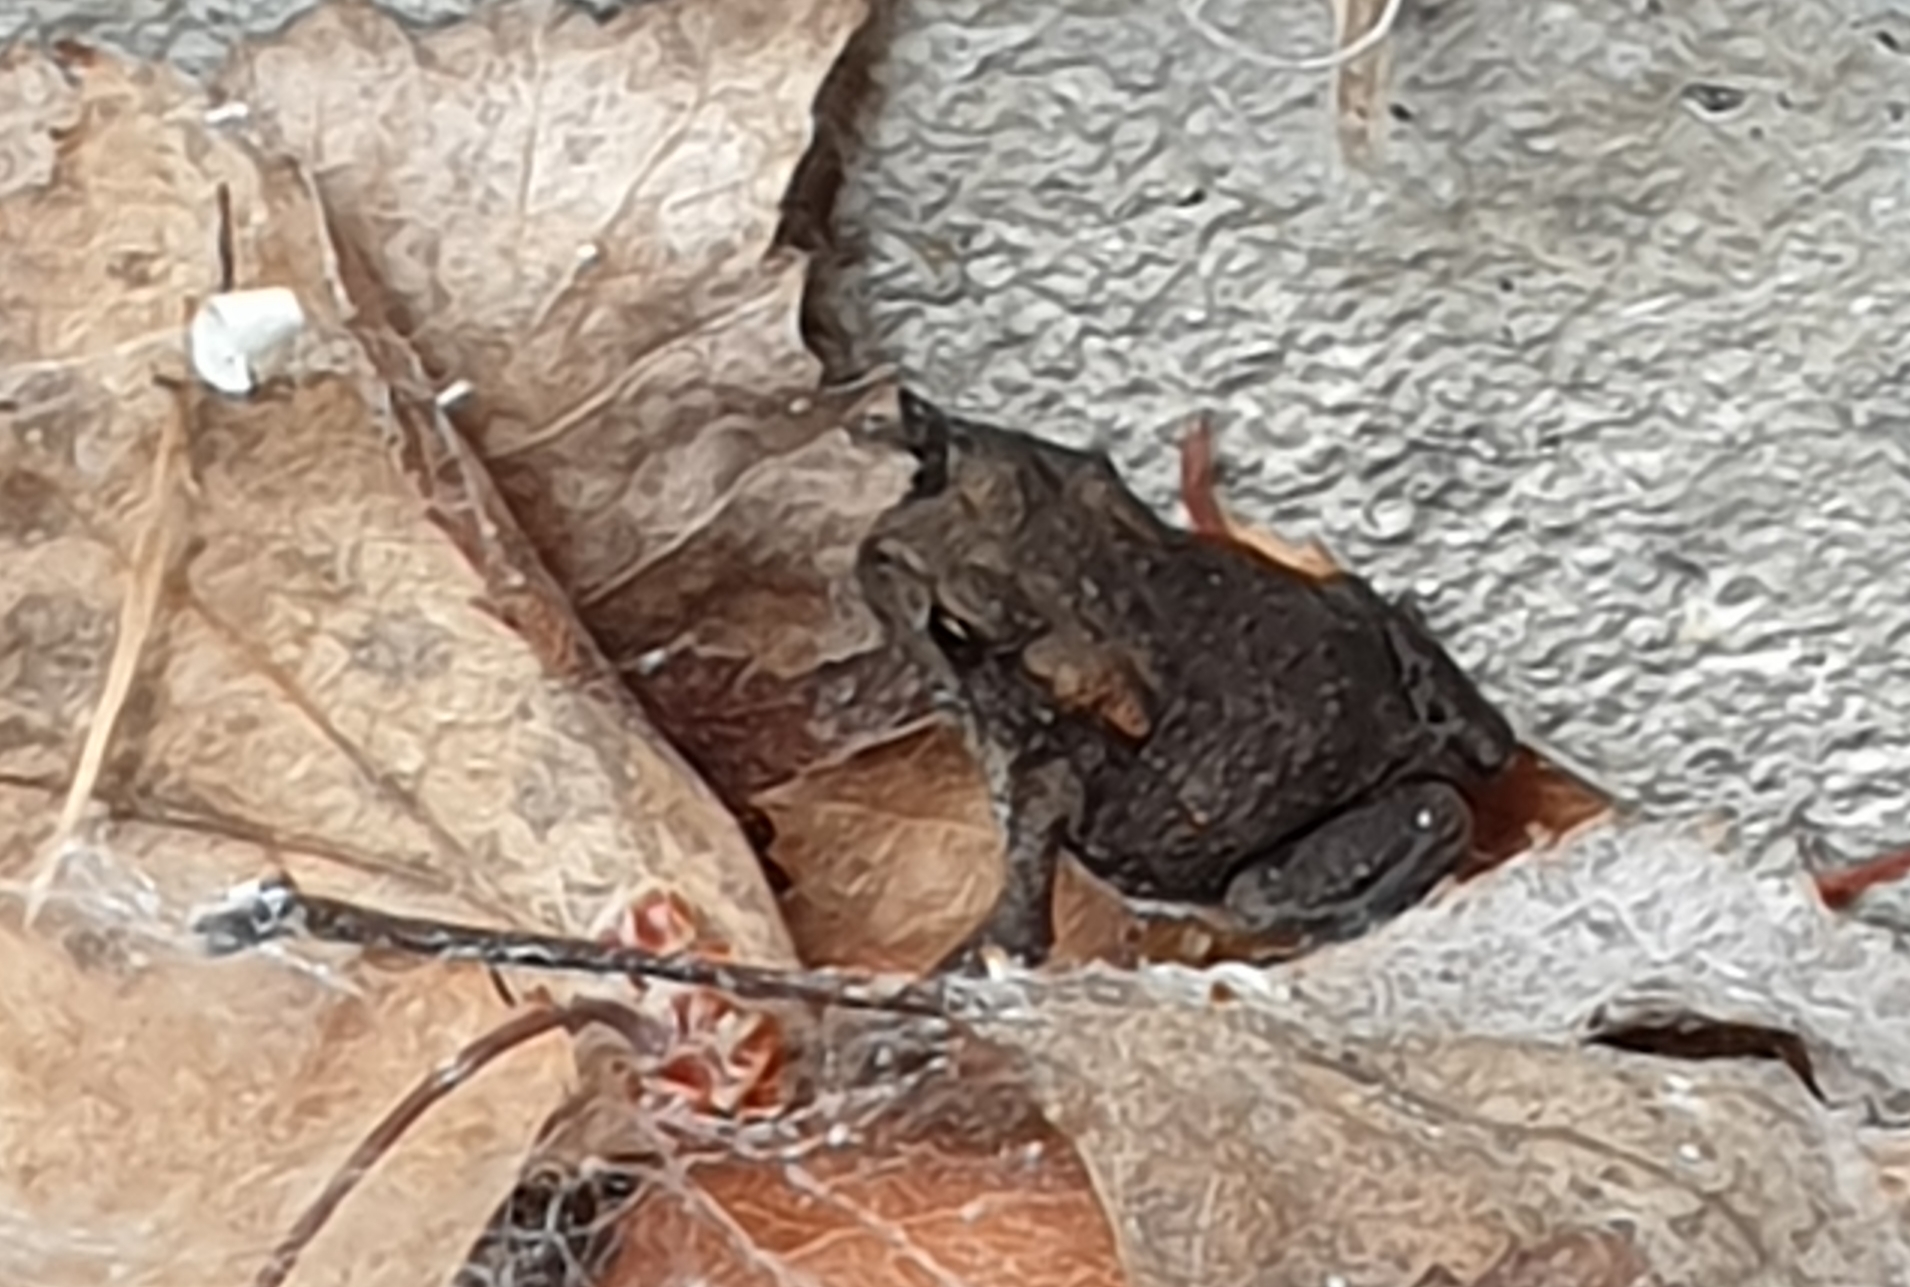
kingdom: Animalia
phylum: Chordata
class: Amphibia
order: Anura
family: Bufonidae
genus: Bufo
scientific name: Bufo bufo
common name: Common toad
